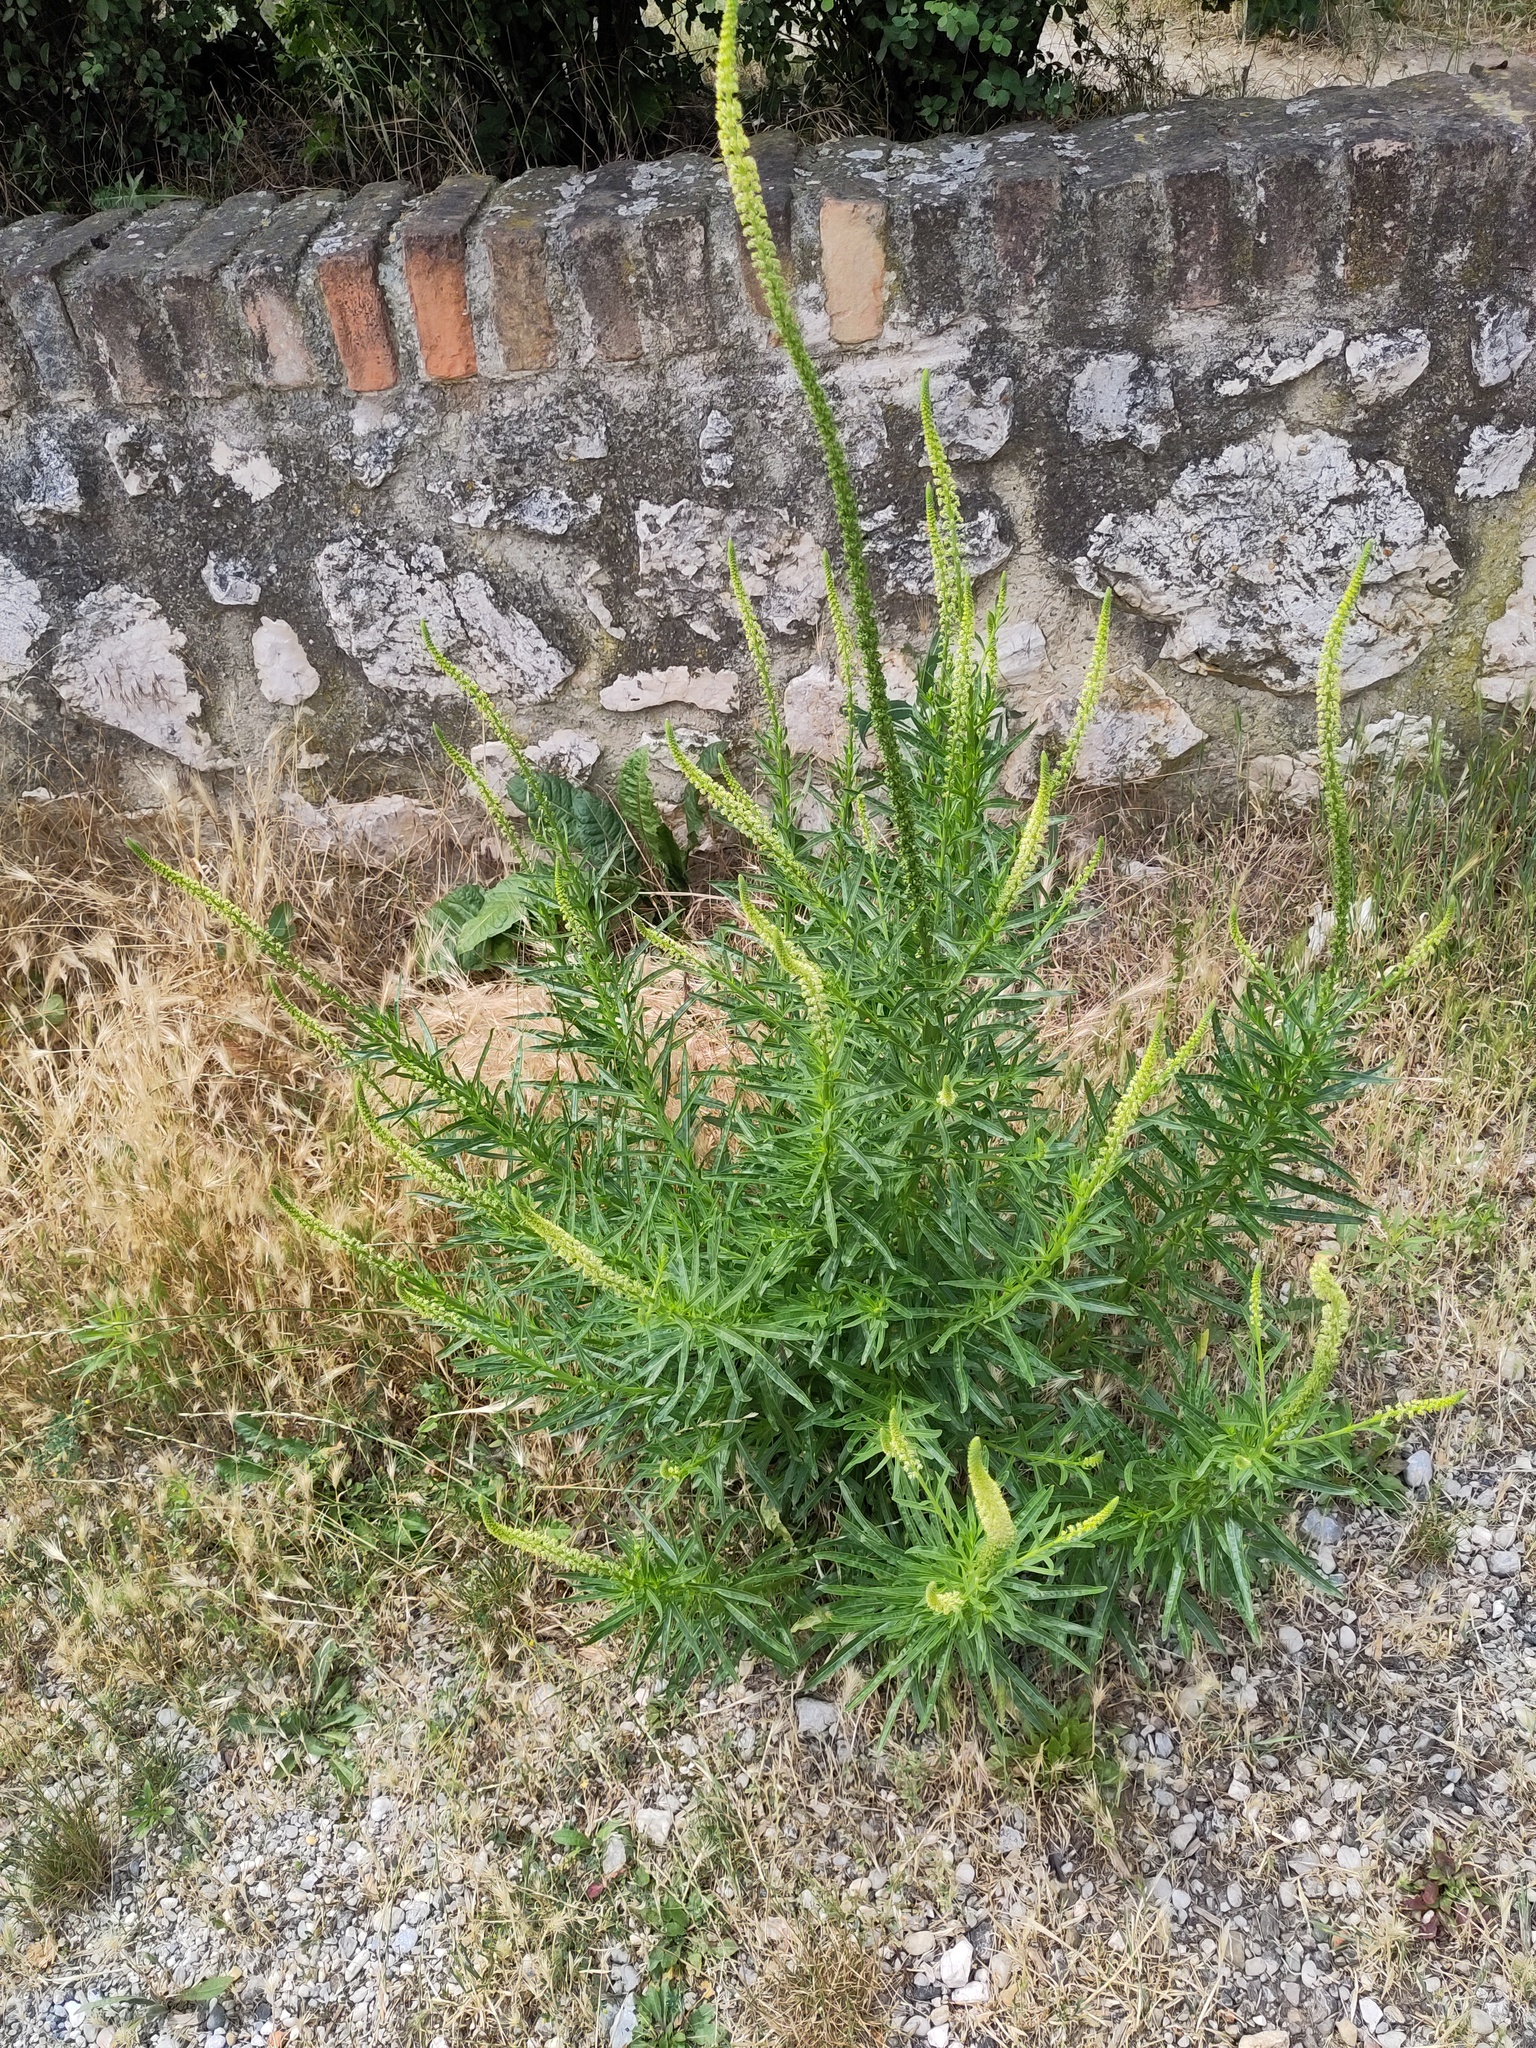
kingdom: Plantae
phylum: Tracheophyta
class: Magnoliopsida
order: Brassicales
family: Resedaceae
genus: Reseda
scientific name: Reseda luteola
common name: Weld
